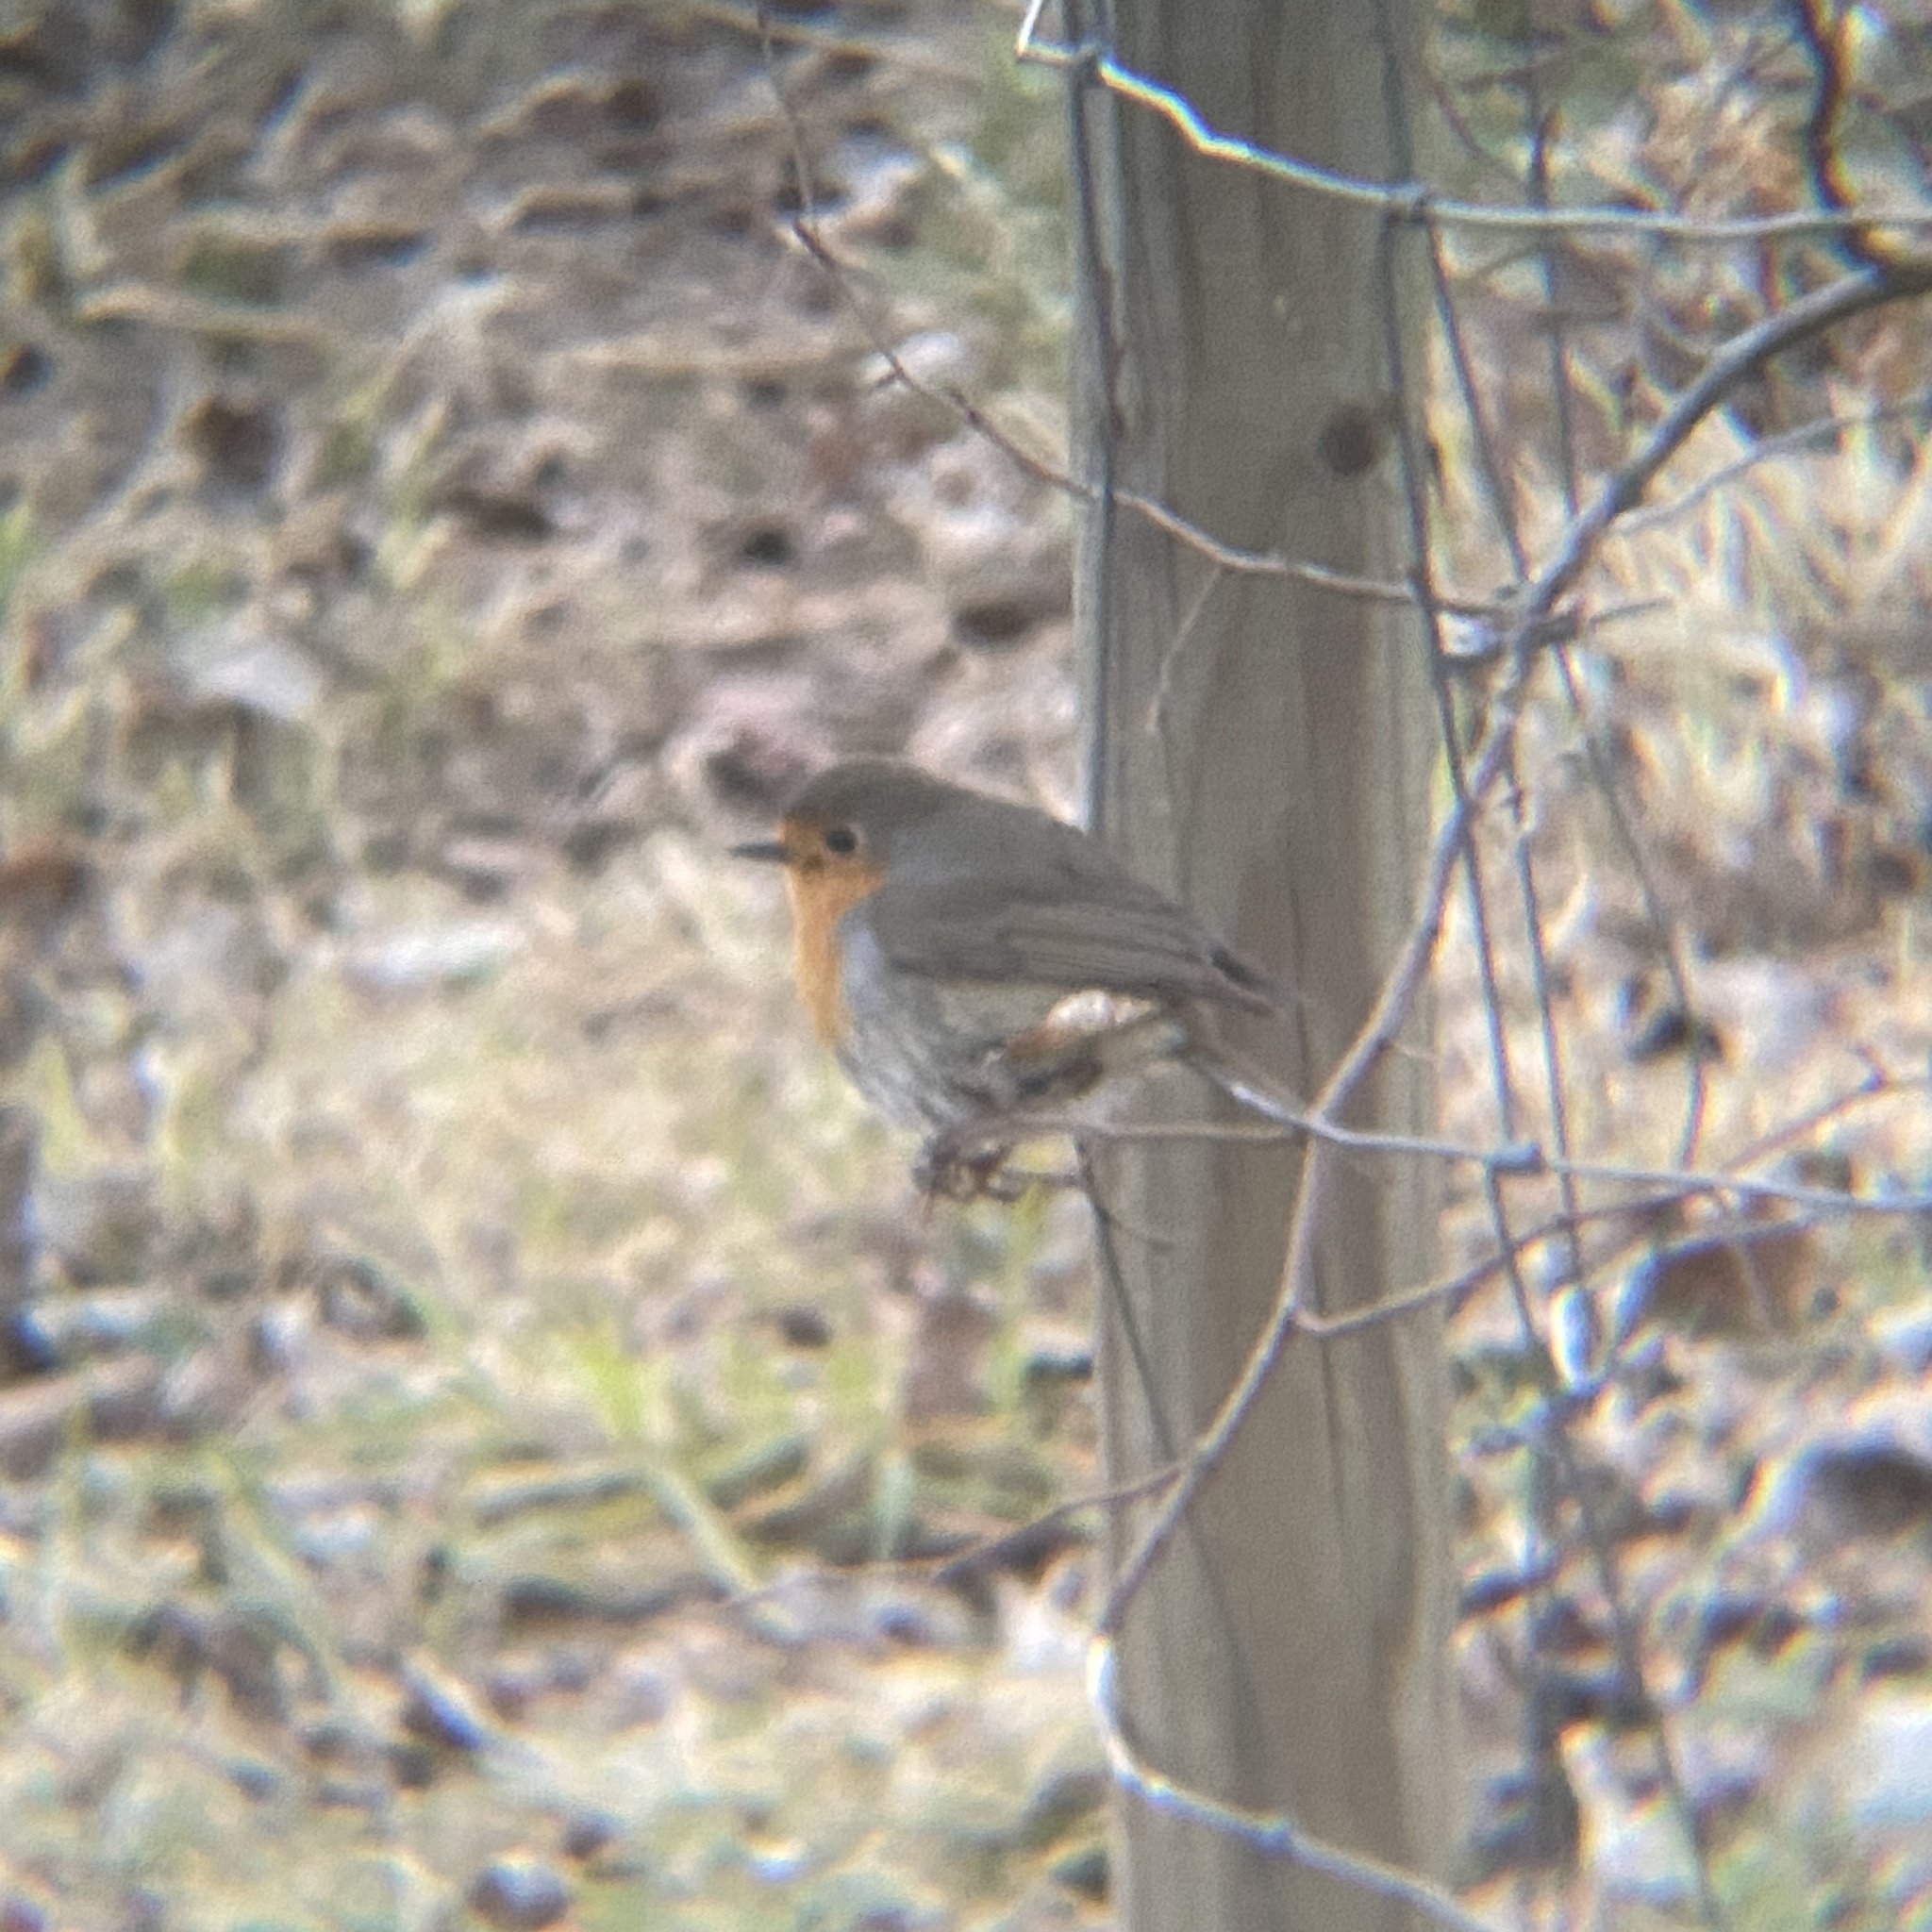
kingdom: Animalia
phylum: Chordata
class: Aves
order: Passeriformes
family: Muscicapidae
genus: Erithacus
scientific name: Erithacus rubecula
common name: European robin
